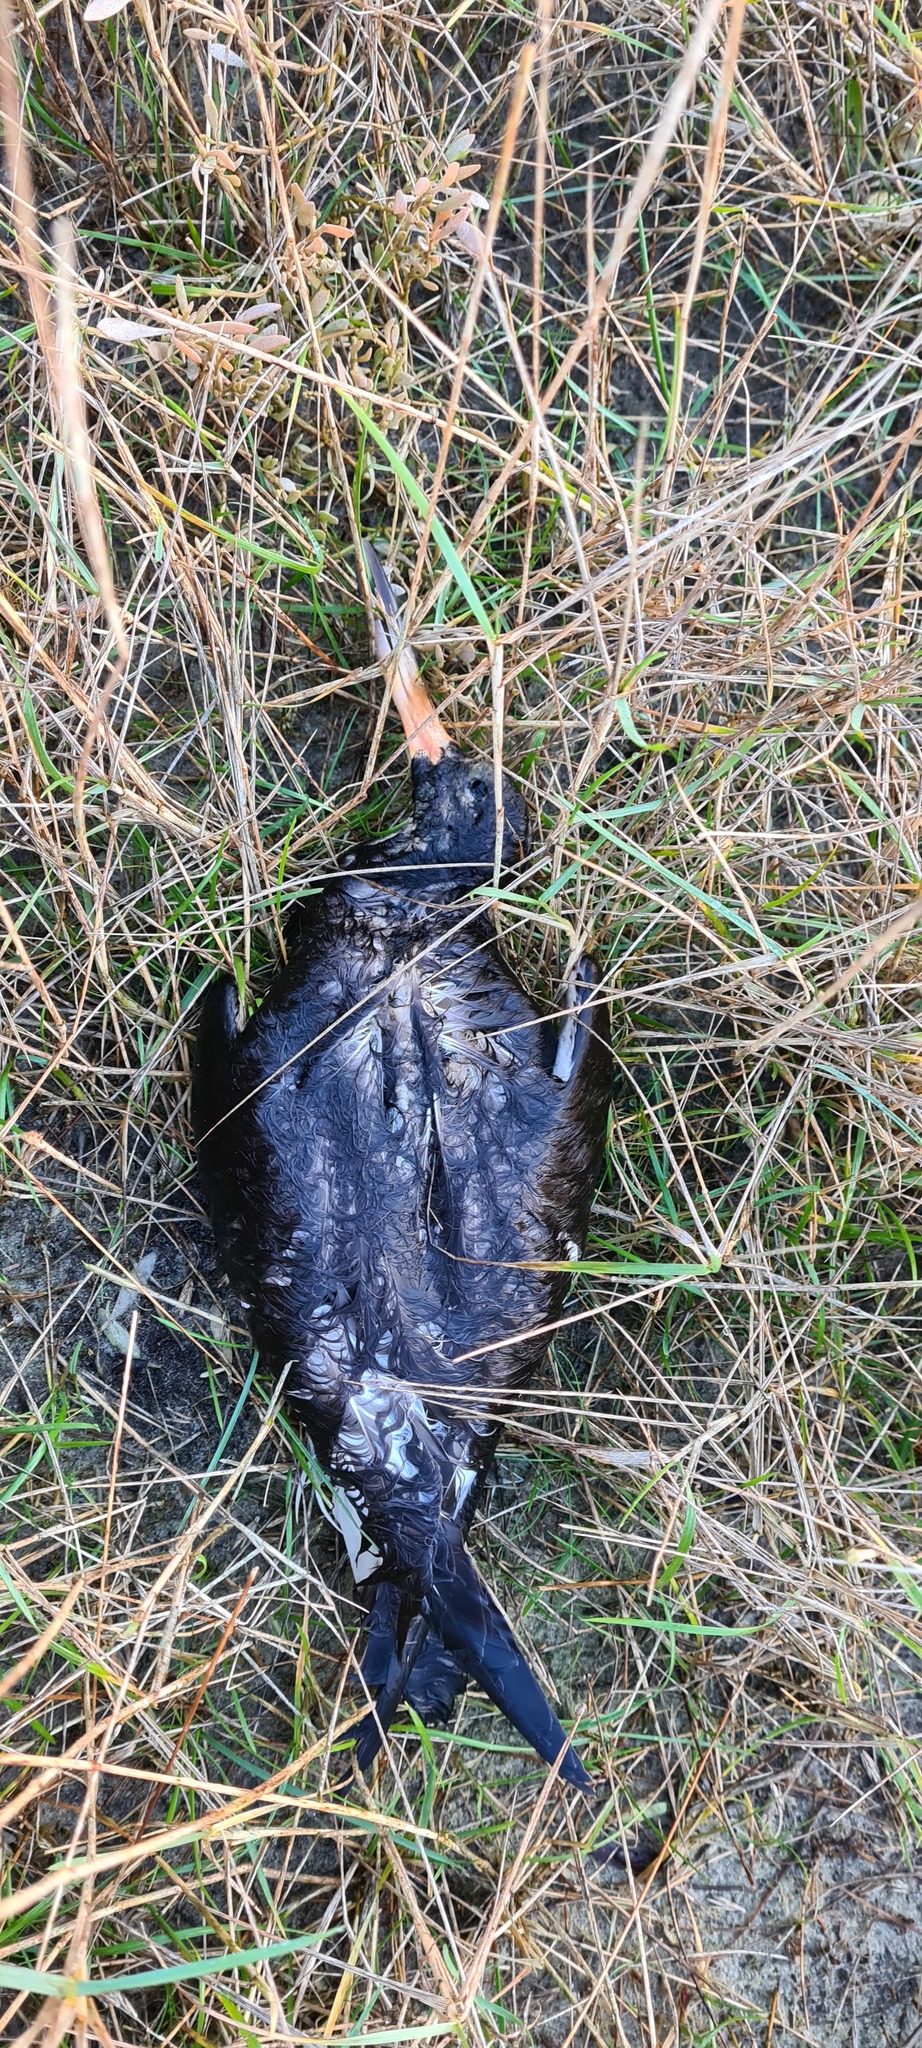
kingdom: Animalia
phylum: Chordata
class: Aves
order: Charadriiformes
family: Haematopodidae
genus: Haematopus
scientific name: Haematopus ostralegus
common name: Eurasian oystercatcher
